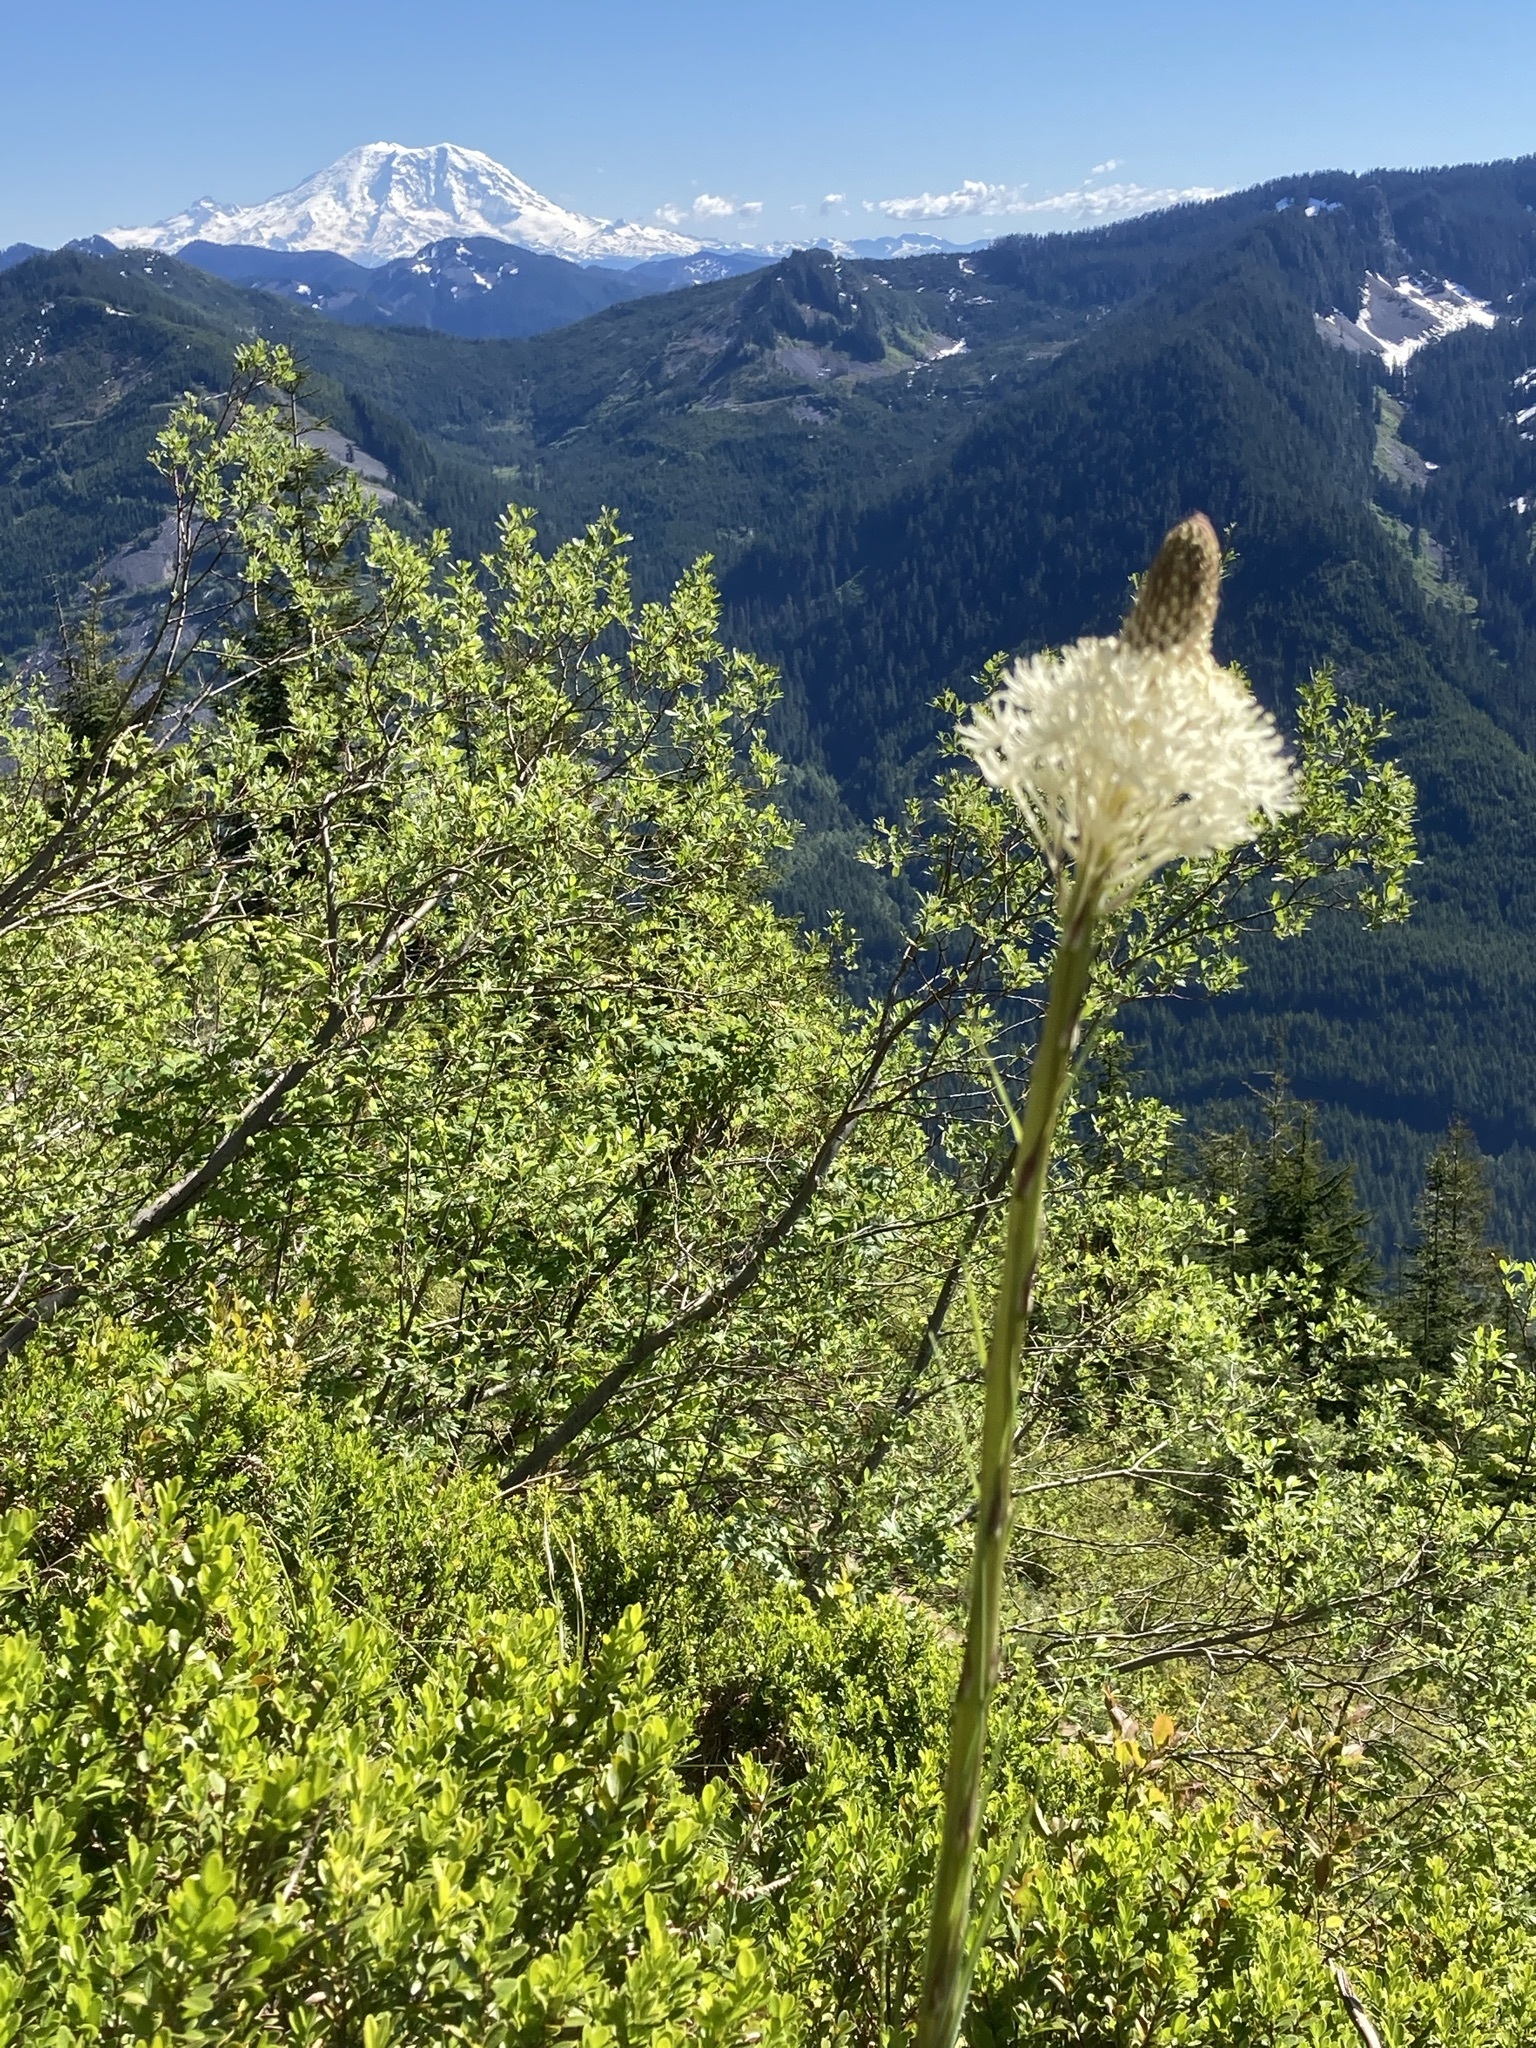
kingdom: Plantae
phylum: Tracheophyta
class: Liliopsida
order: Liliales
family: Melanthiaceae
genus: Xerophyllum
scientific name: Xerophyllum tenax
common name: Bear-grass
